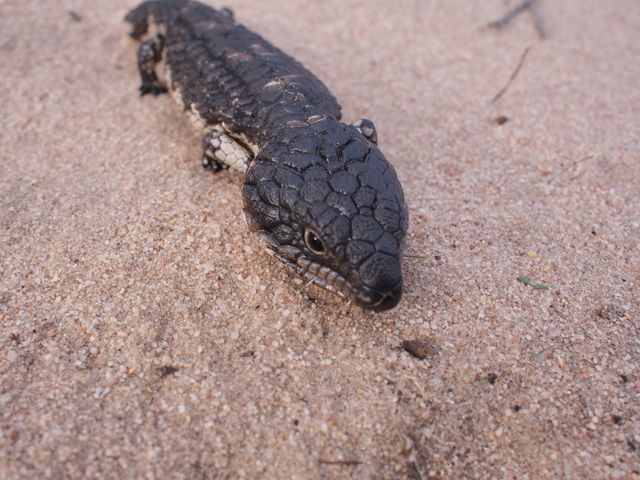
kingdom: Animalia
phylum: Chordata
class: Squamata
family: Scincidae
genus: Tiliqua
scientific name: Tiliqua rugosa
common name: Pinecone lizard
